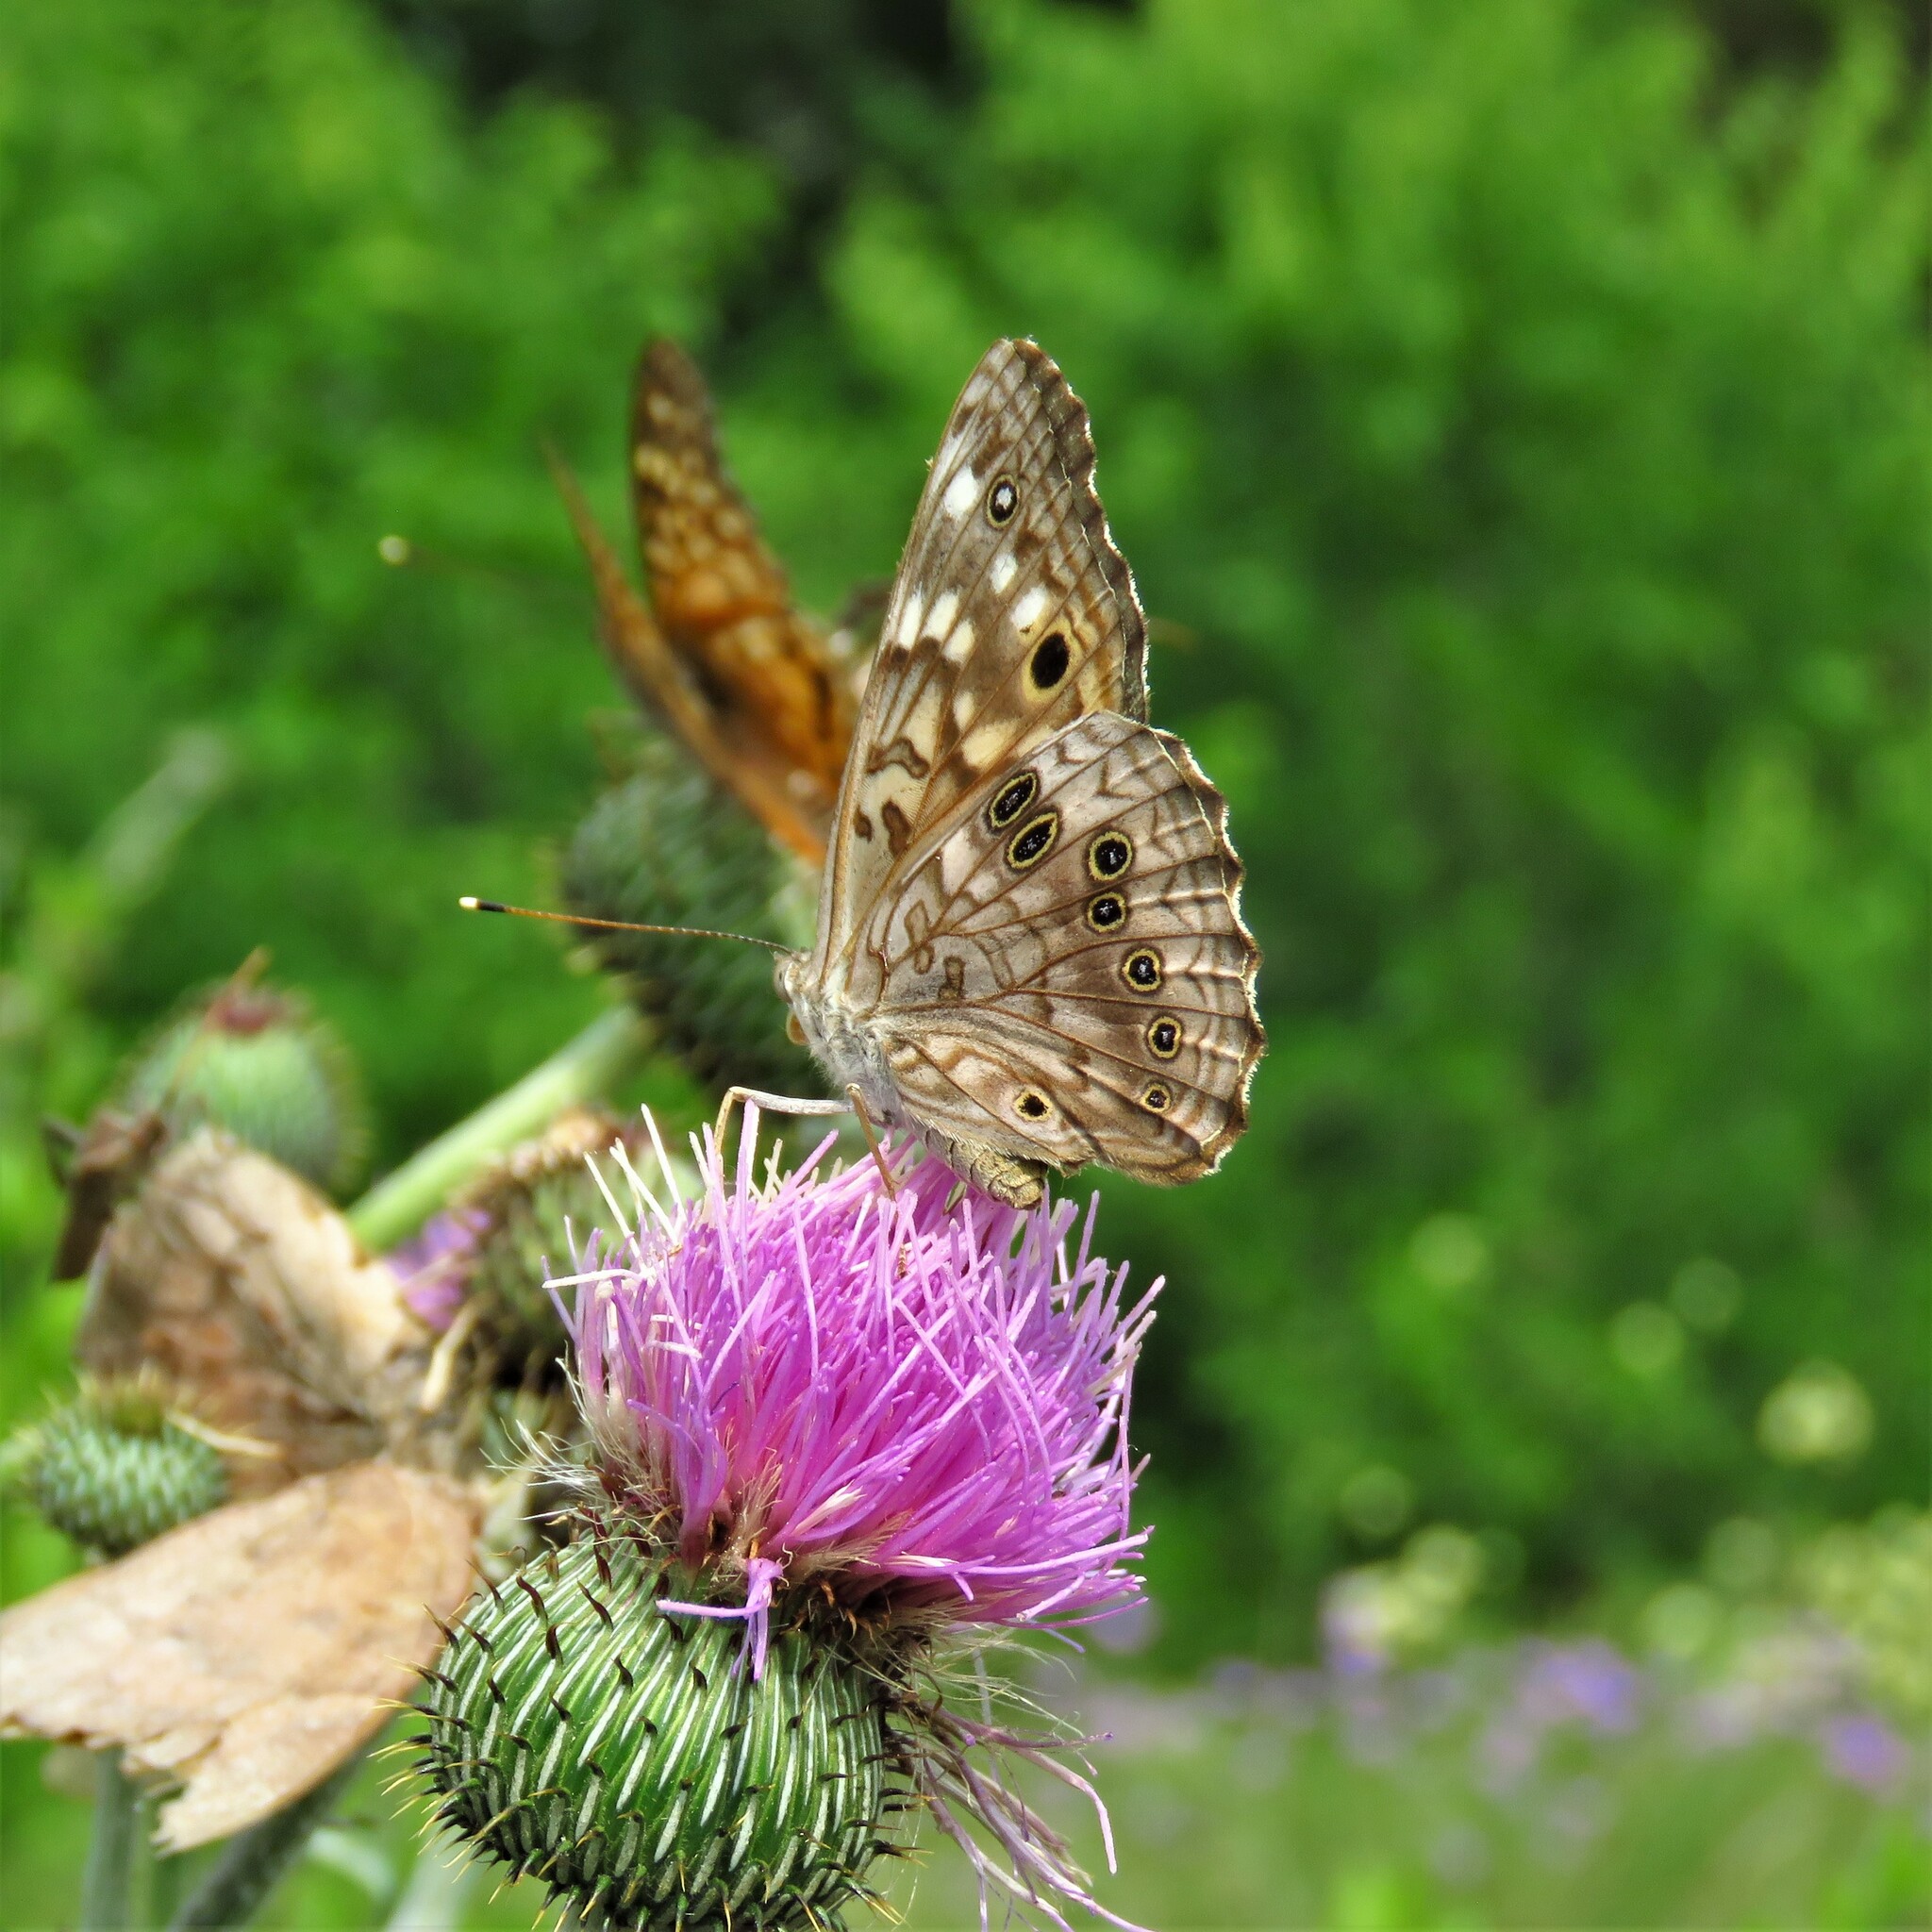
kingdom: Animalia
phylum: Arthropoda
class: Insecta
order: Lepidoptera
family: Nymphalidae
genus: Asterocampa
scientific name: Asterocampa celtis
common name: Hackberry emperor
